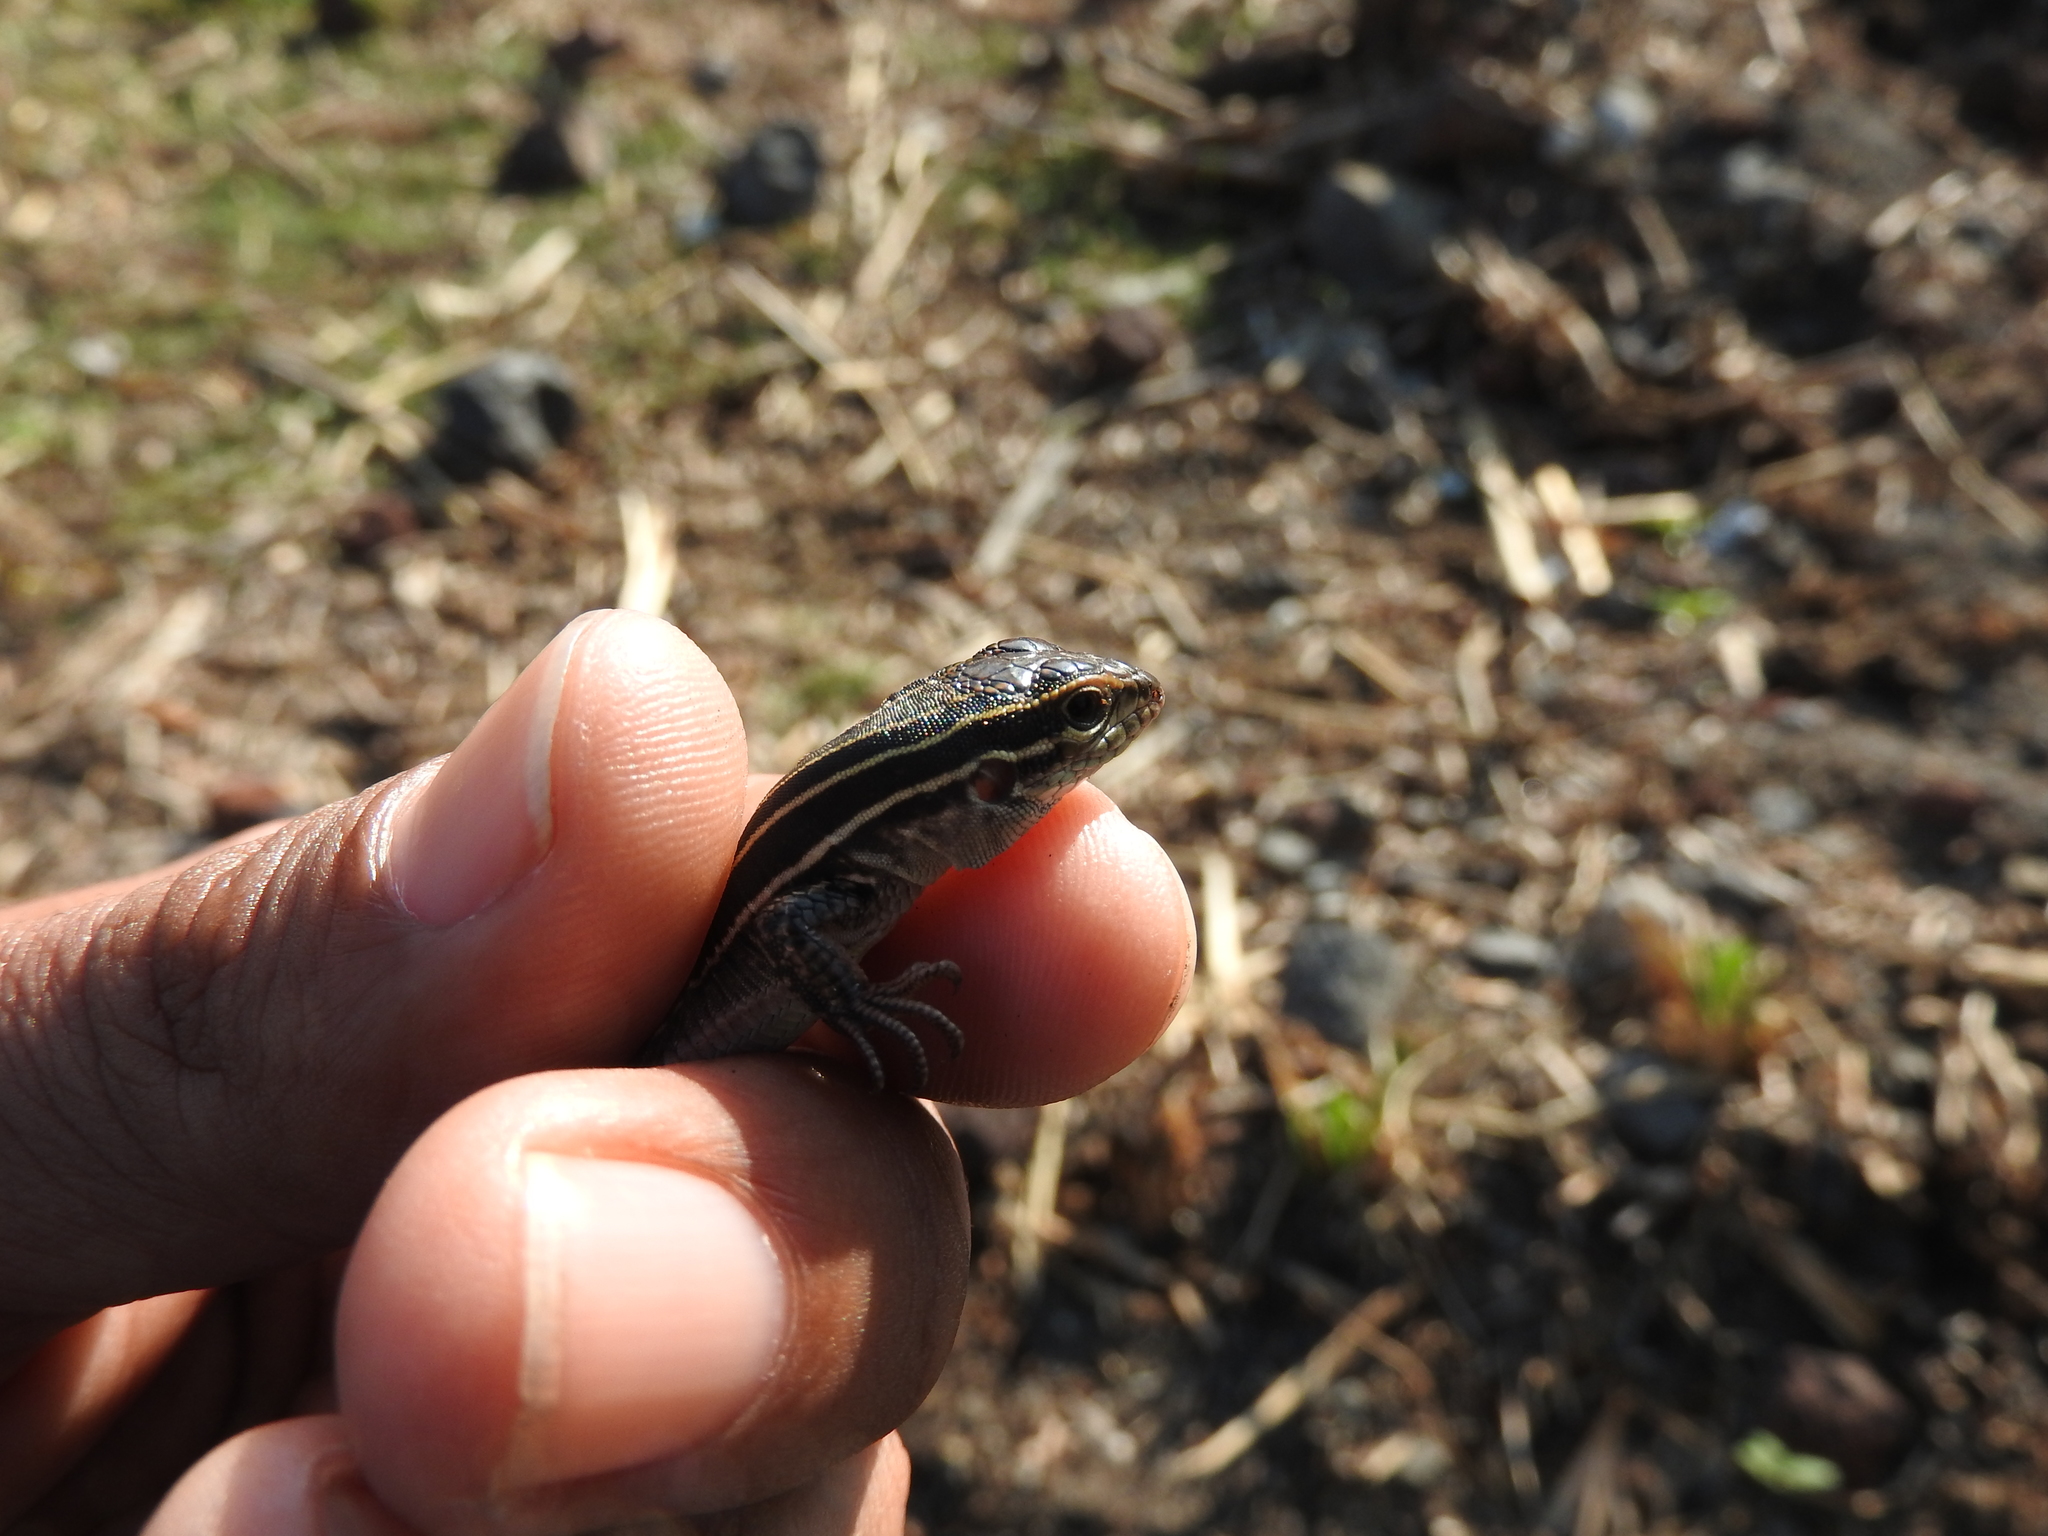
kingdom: Animalia
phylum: Chordata
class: Squamata
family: Teiidae
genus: Aspidoscelis
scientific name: Aspidoscelis gularis
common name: Eastern spotted whiptail
